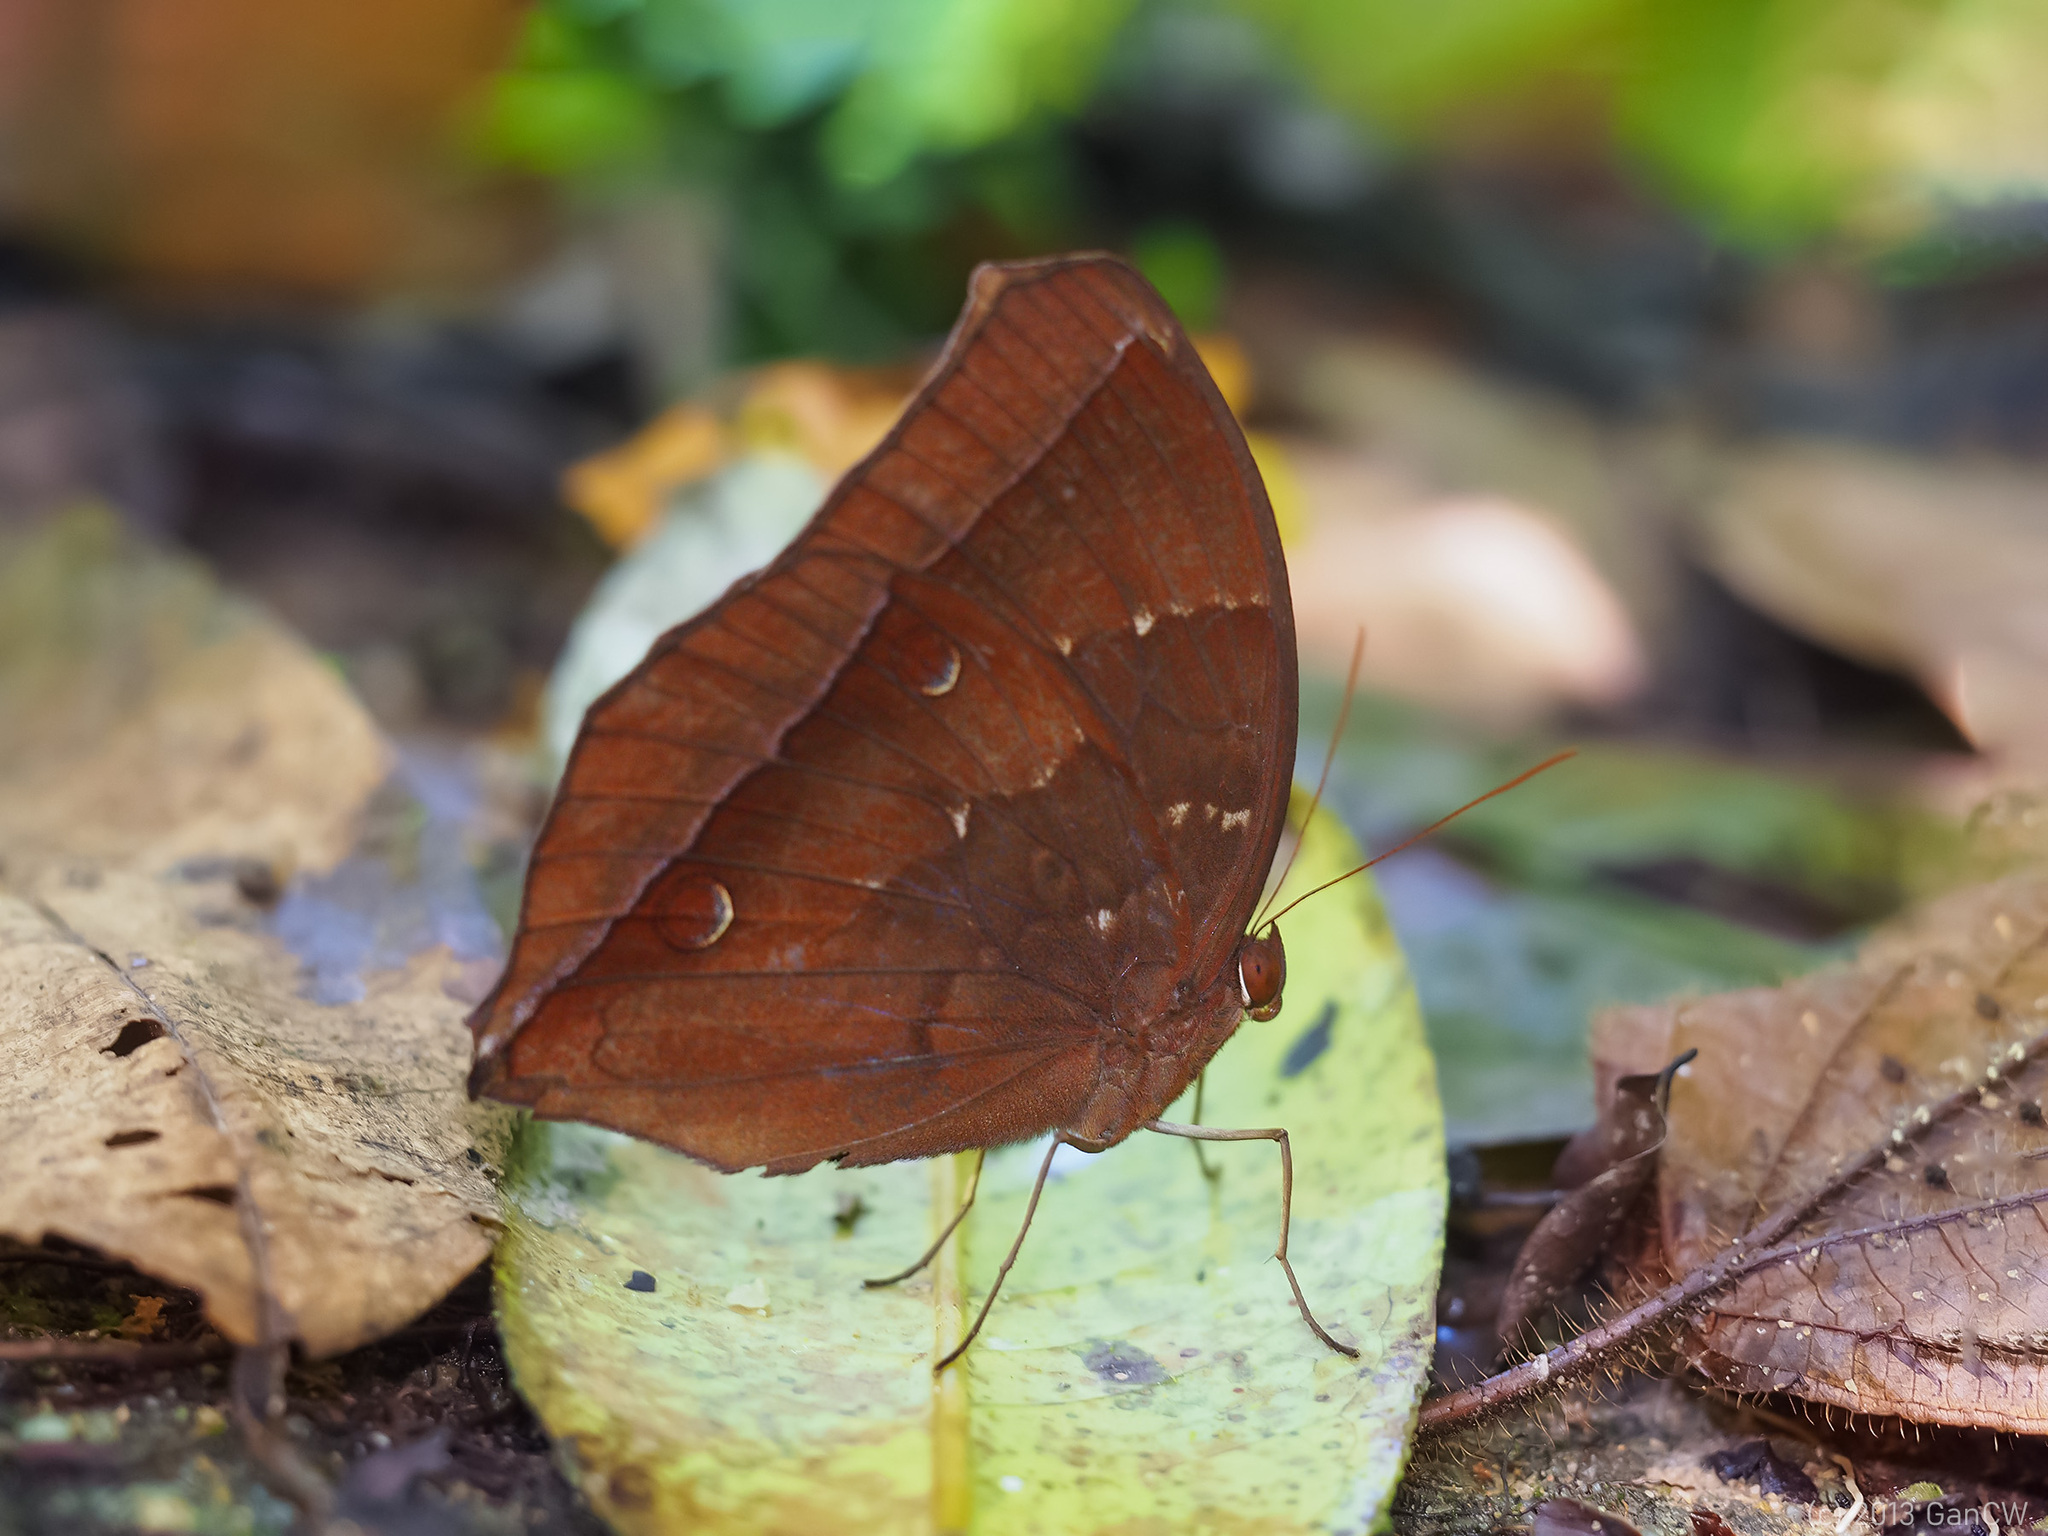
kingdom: Animalia
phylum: Arthropoda
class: Insecta
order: Lepidoptera
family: Nymphalidae
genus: Thaumantis
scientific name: Thaumantis noureddin
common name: Dark jungle glory
